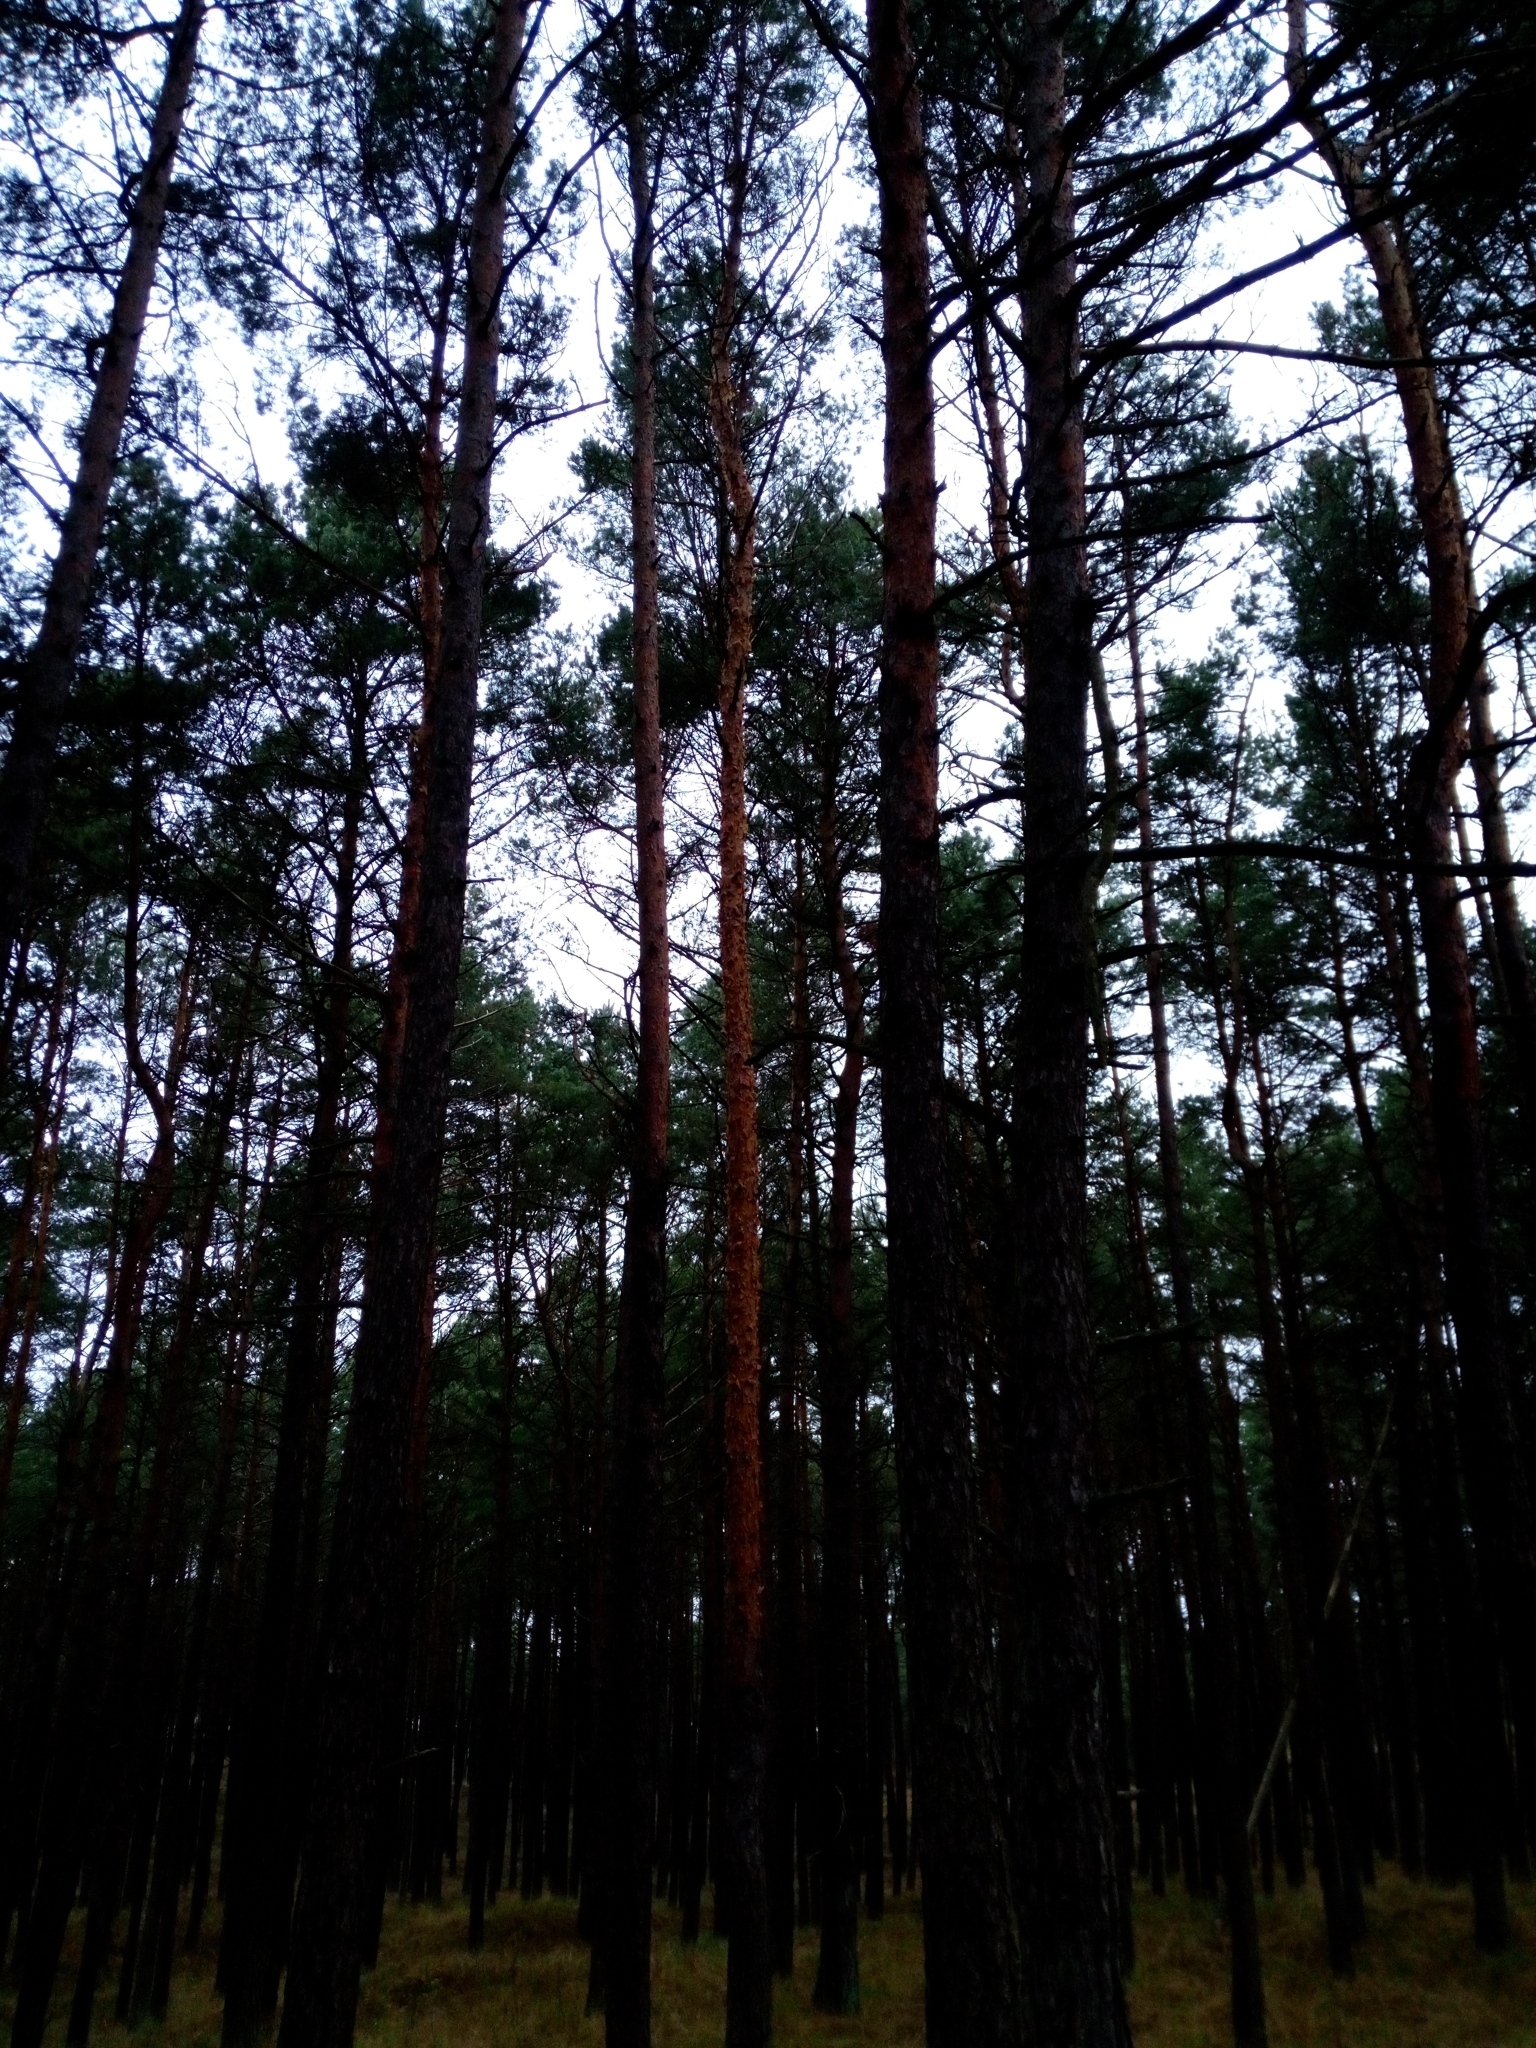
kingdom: Plantae
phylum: Tracheophyta
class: Pinopsida
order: Pinales
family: Pinaceae
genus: Pinus
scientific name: Pinus sylvestris
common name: Scots pine
